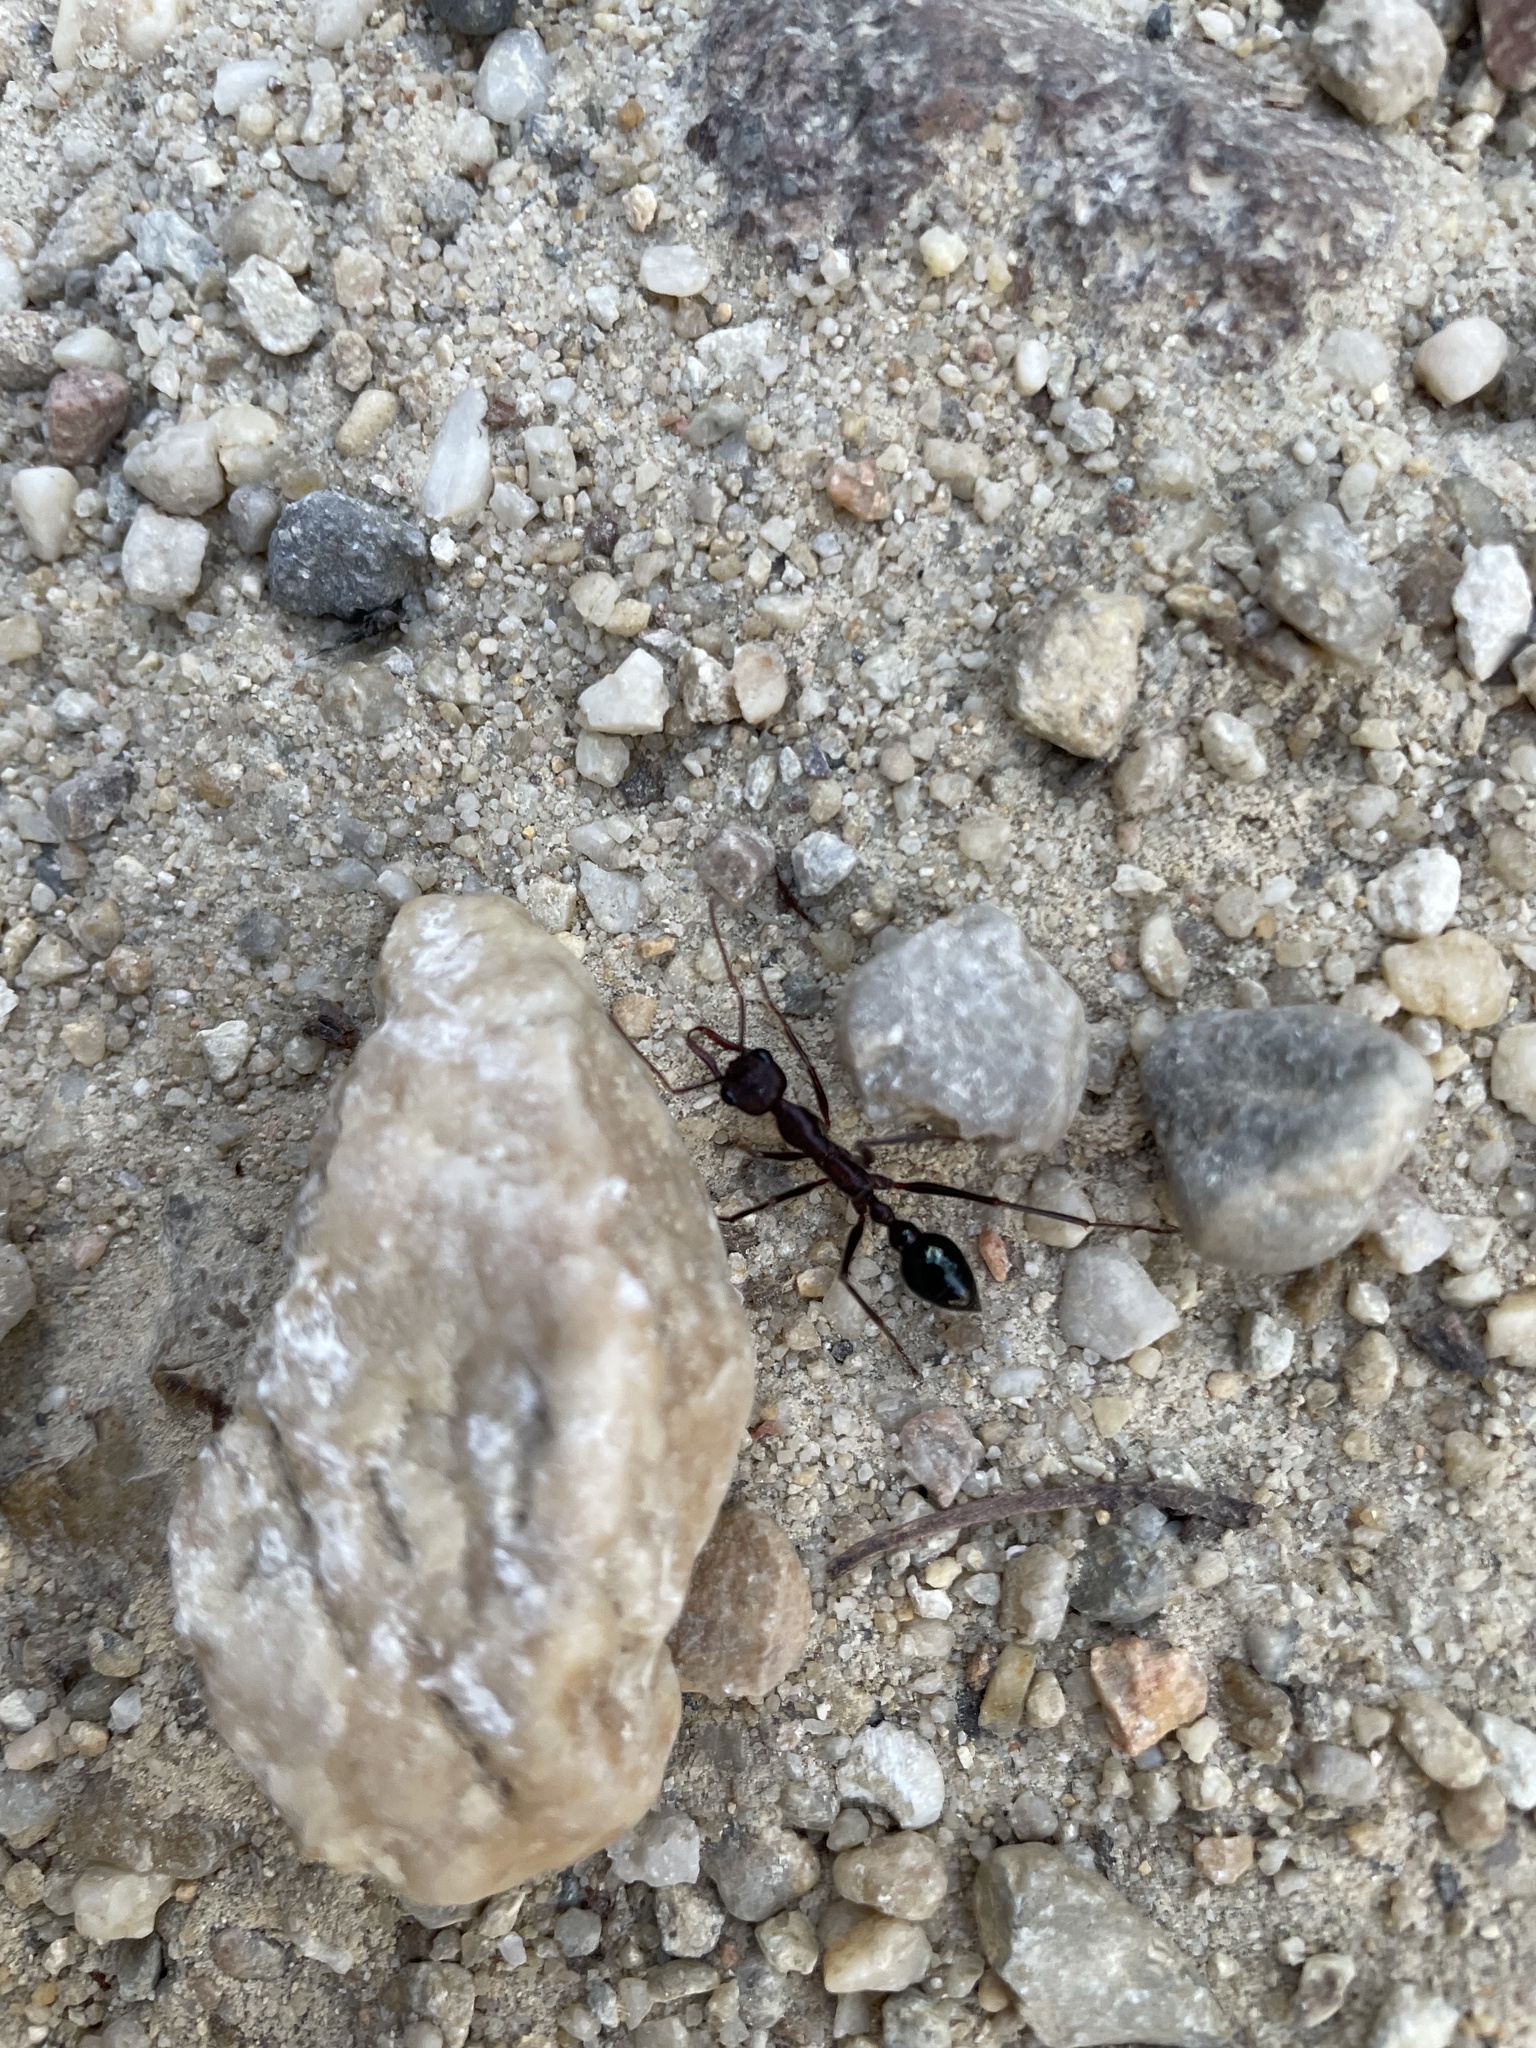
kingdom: Animalia
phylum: Arthropoda
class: Insecta
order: Hymenoptera
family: Formicidae
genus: Myrmecia
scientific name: Myrmecia forficata
